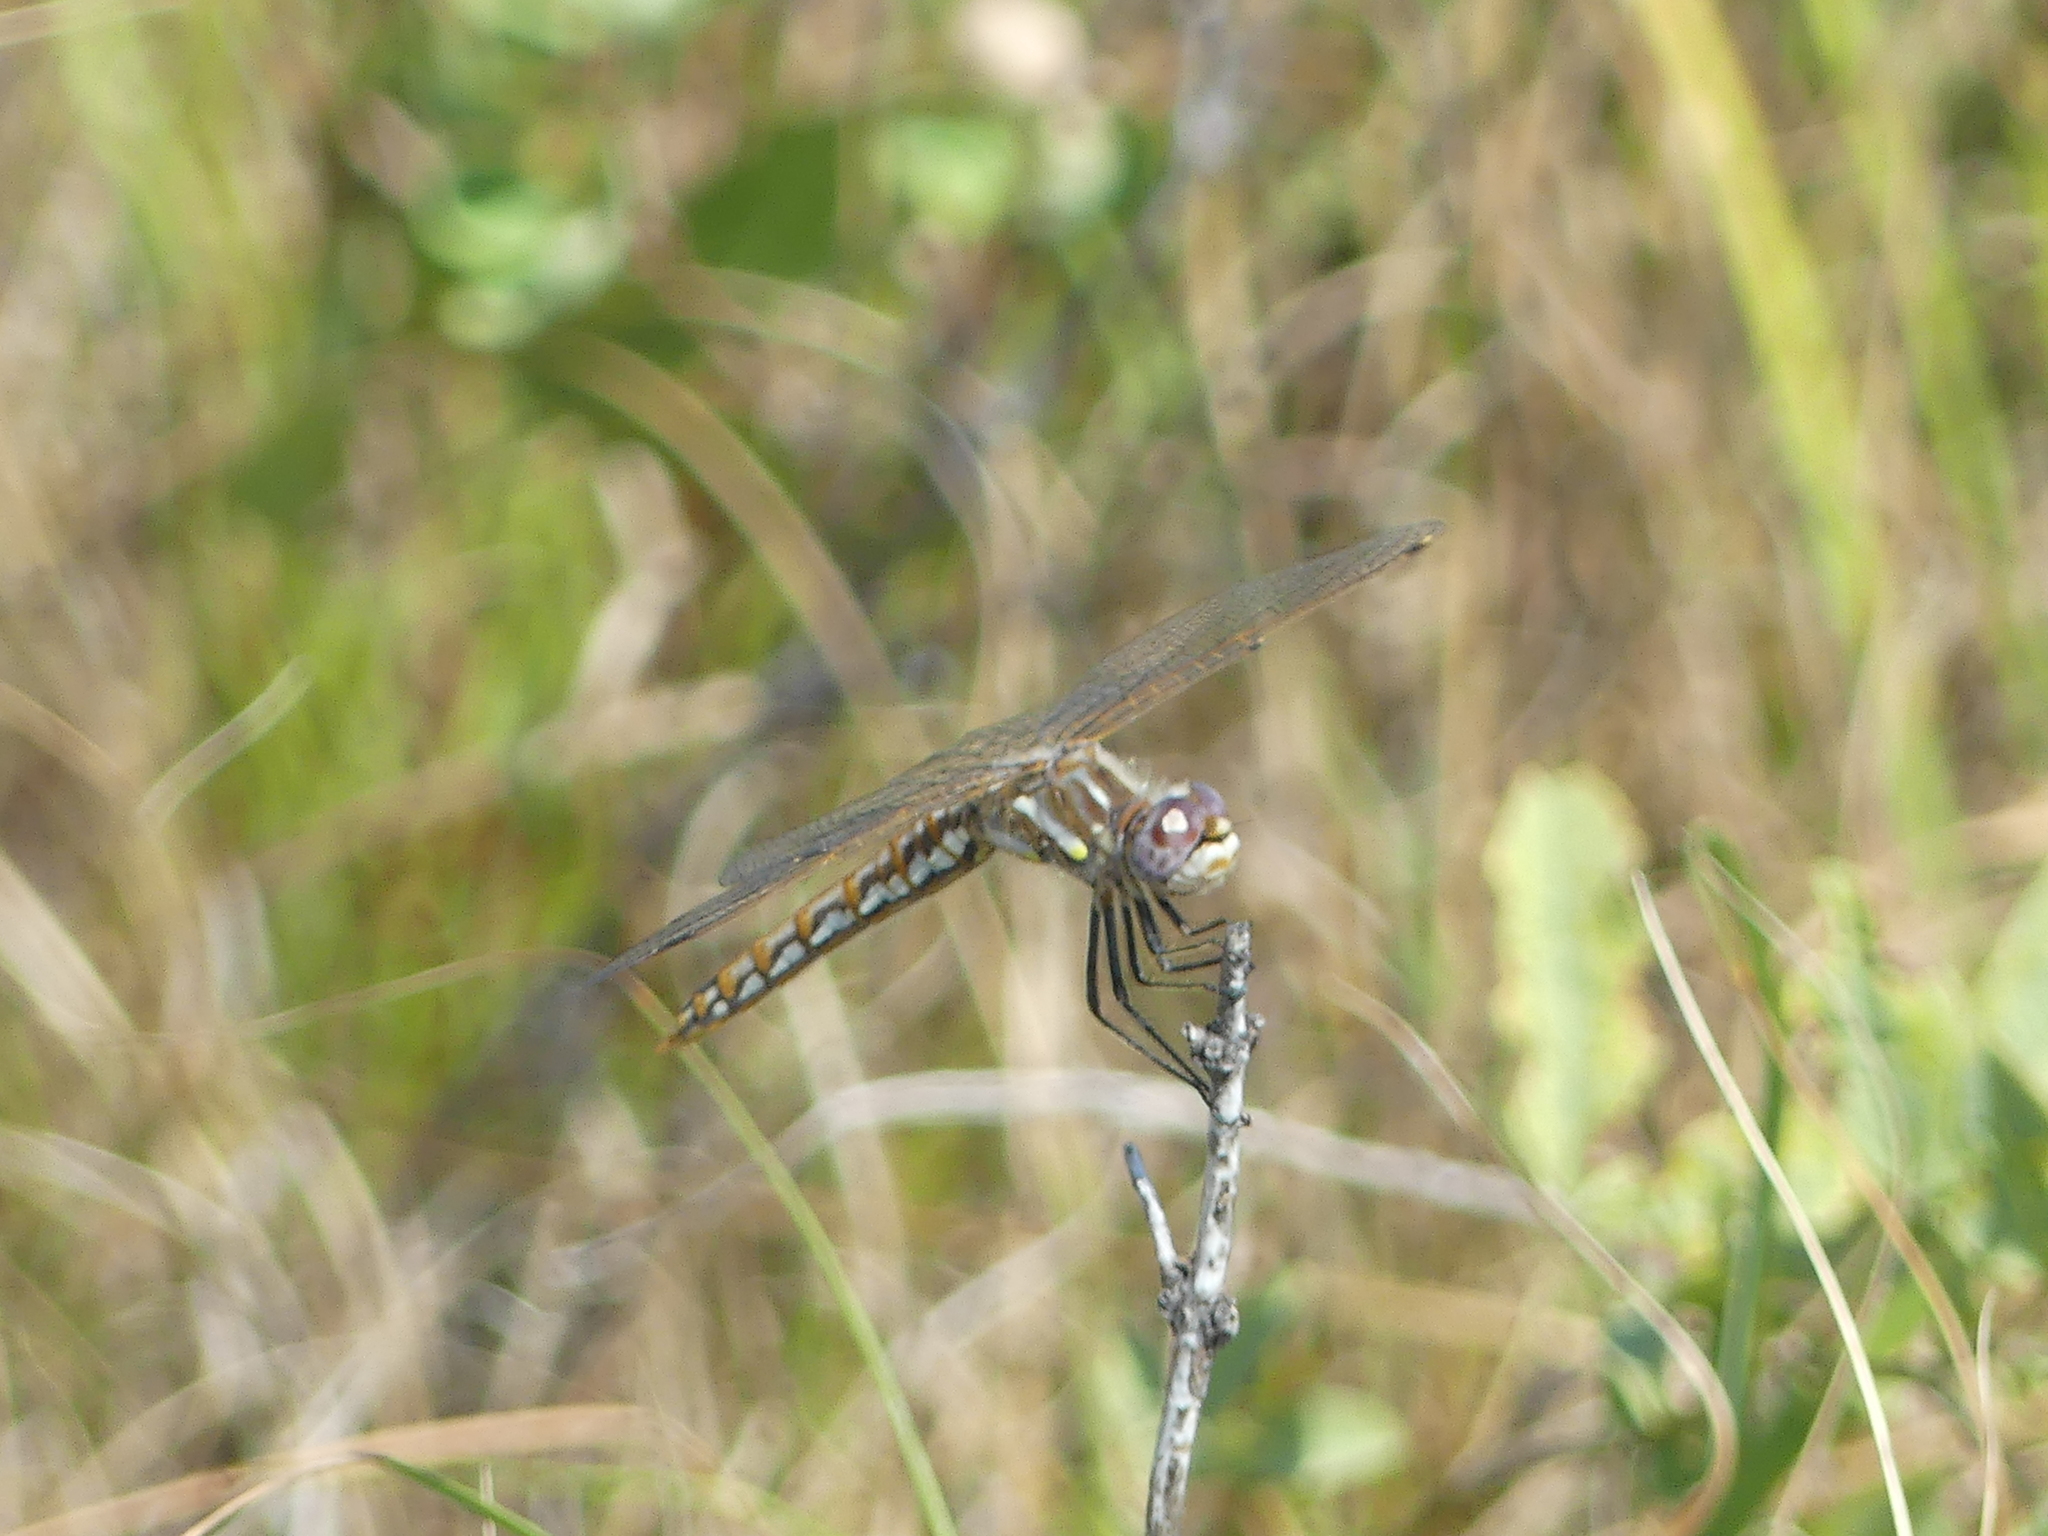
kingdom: Animalia
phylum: Arthropoda
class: Insecta
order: Odonata
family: Libellulidae
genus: Sympetrum
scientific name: Sympetrum corruptum
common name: Variegated meadowhawk
